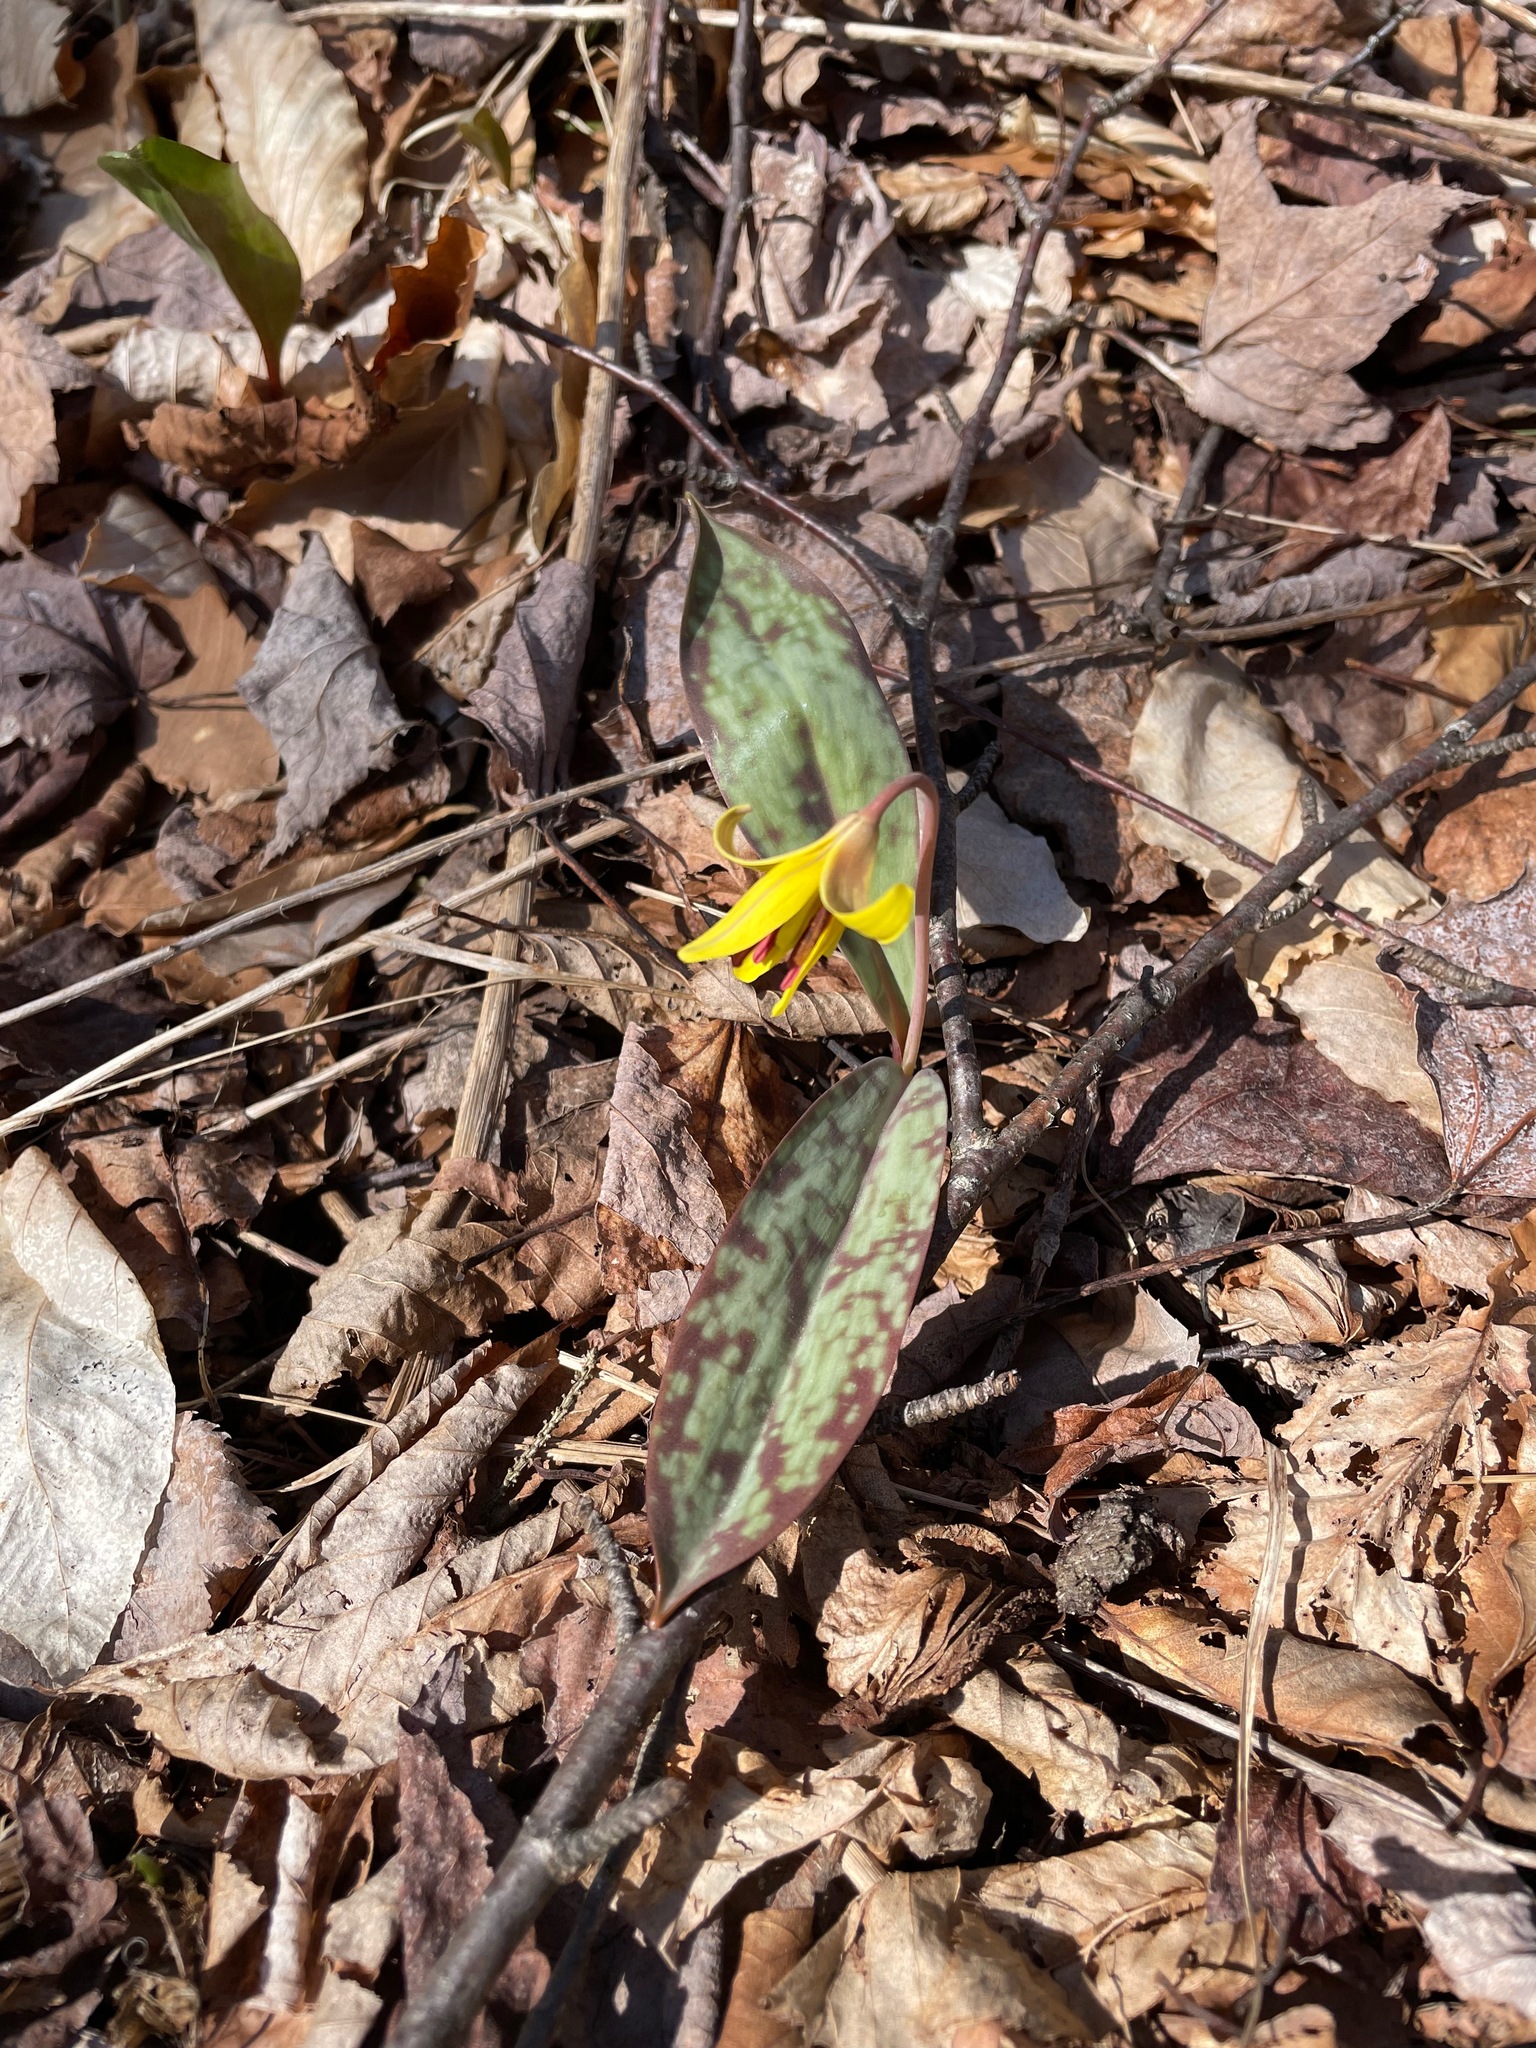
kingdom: Plantae
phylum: Tracheophyta
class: Liliopsida
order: Liliales
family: Liliaceae
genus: Erythronium
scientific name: Erythronium americanum
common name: Yellow adder's-tongue
